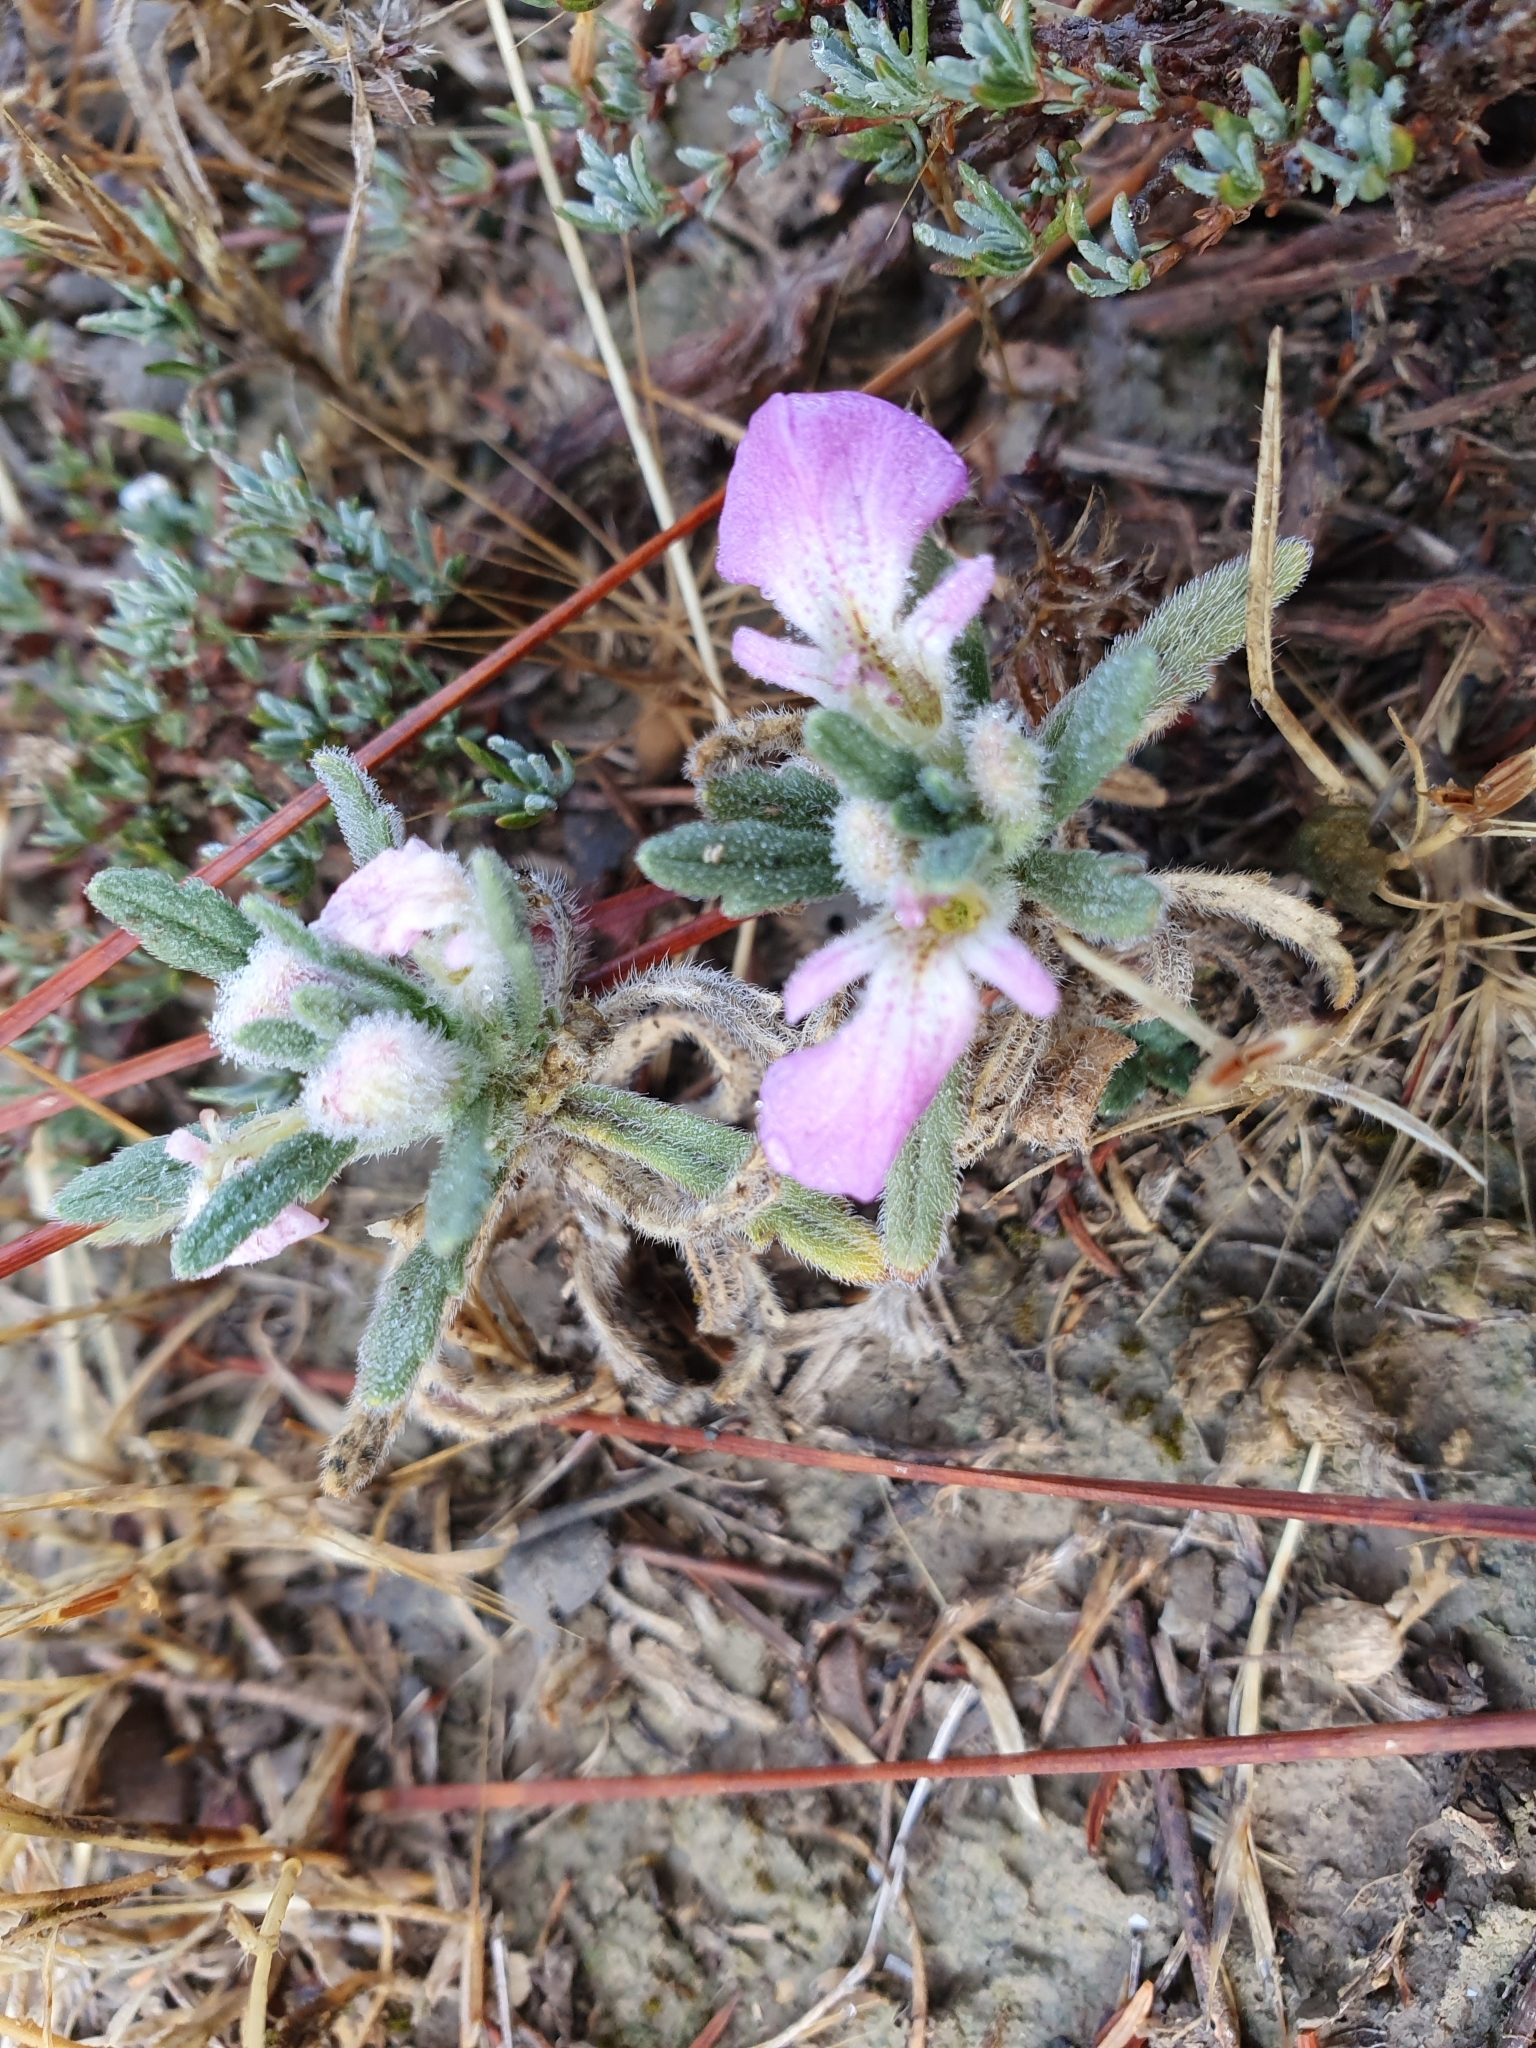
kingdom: Plantae
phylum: Tracheophyta
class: Magnoliopsida
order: Lamiales
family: Lamiaceae
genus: Ajuga
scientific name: Ajuga iva
